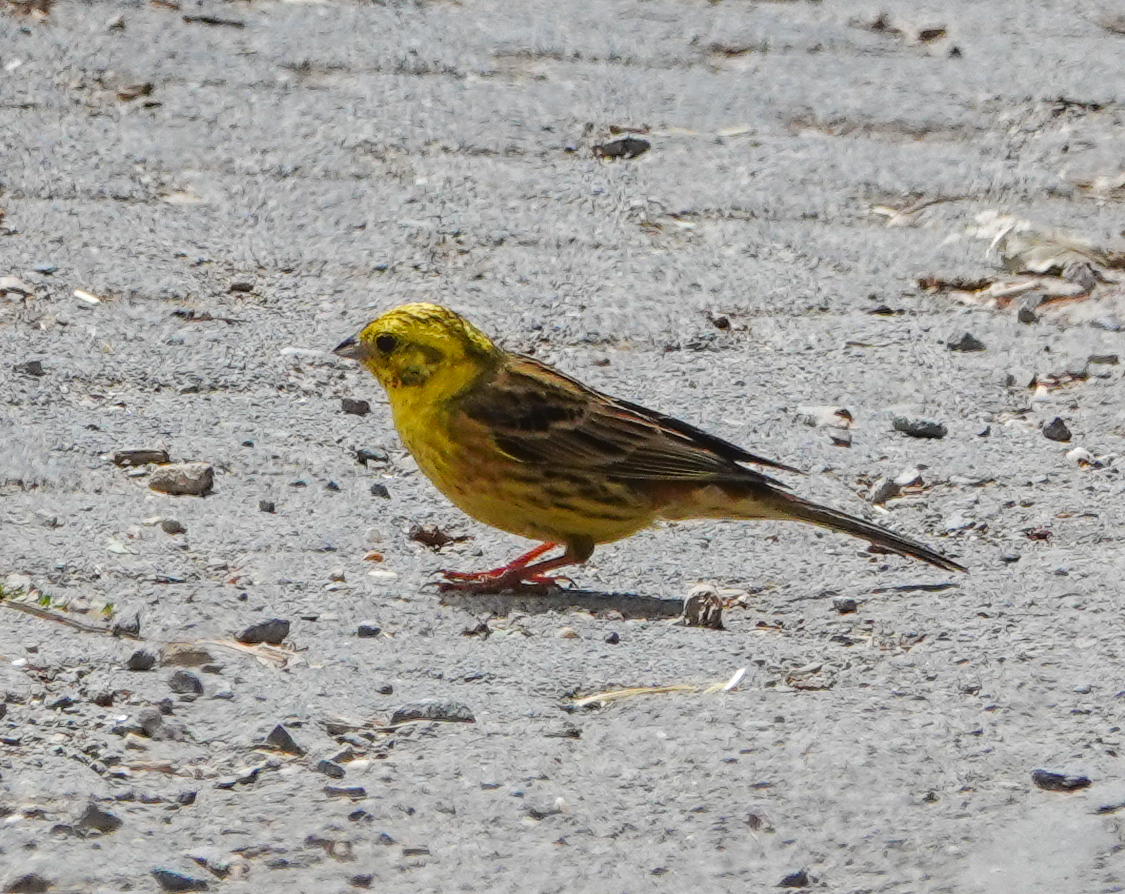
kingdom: Animalia
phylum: Chordata
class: Aves
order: Passeriformes
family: Emberizidae
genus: Emberiza
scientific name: Emberiza citrinella
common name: Yellowhammer
